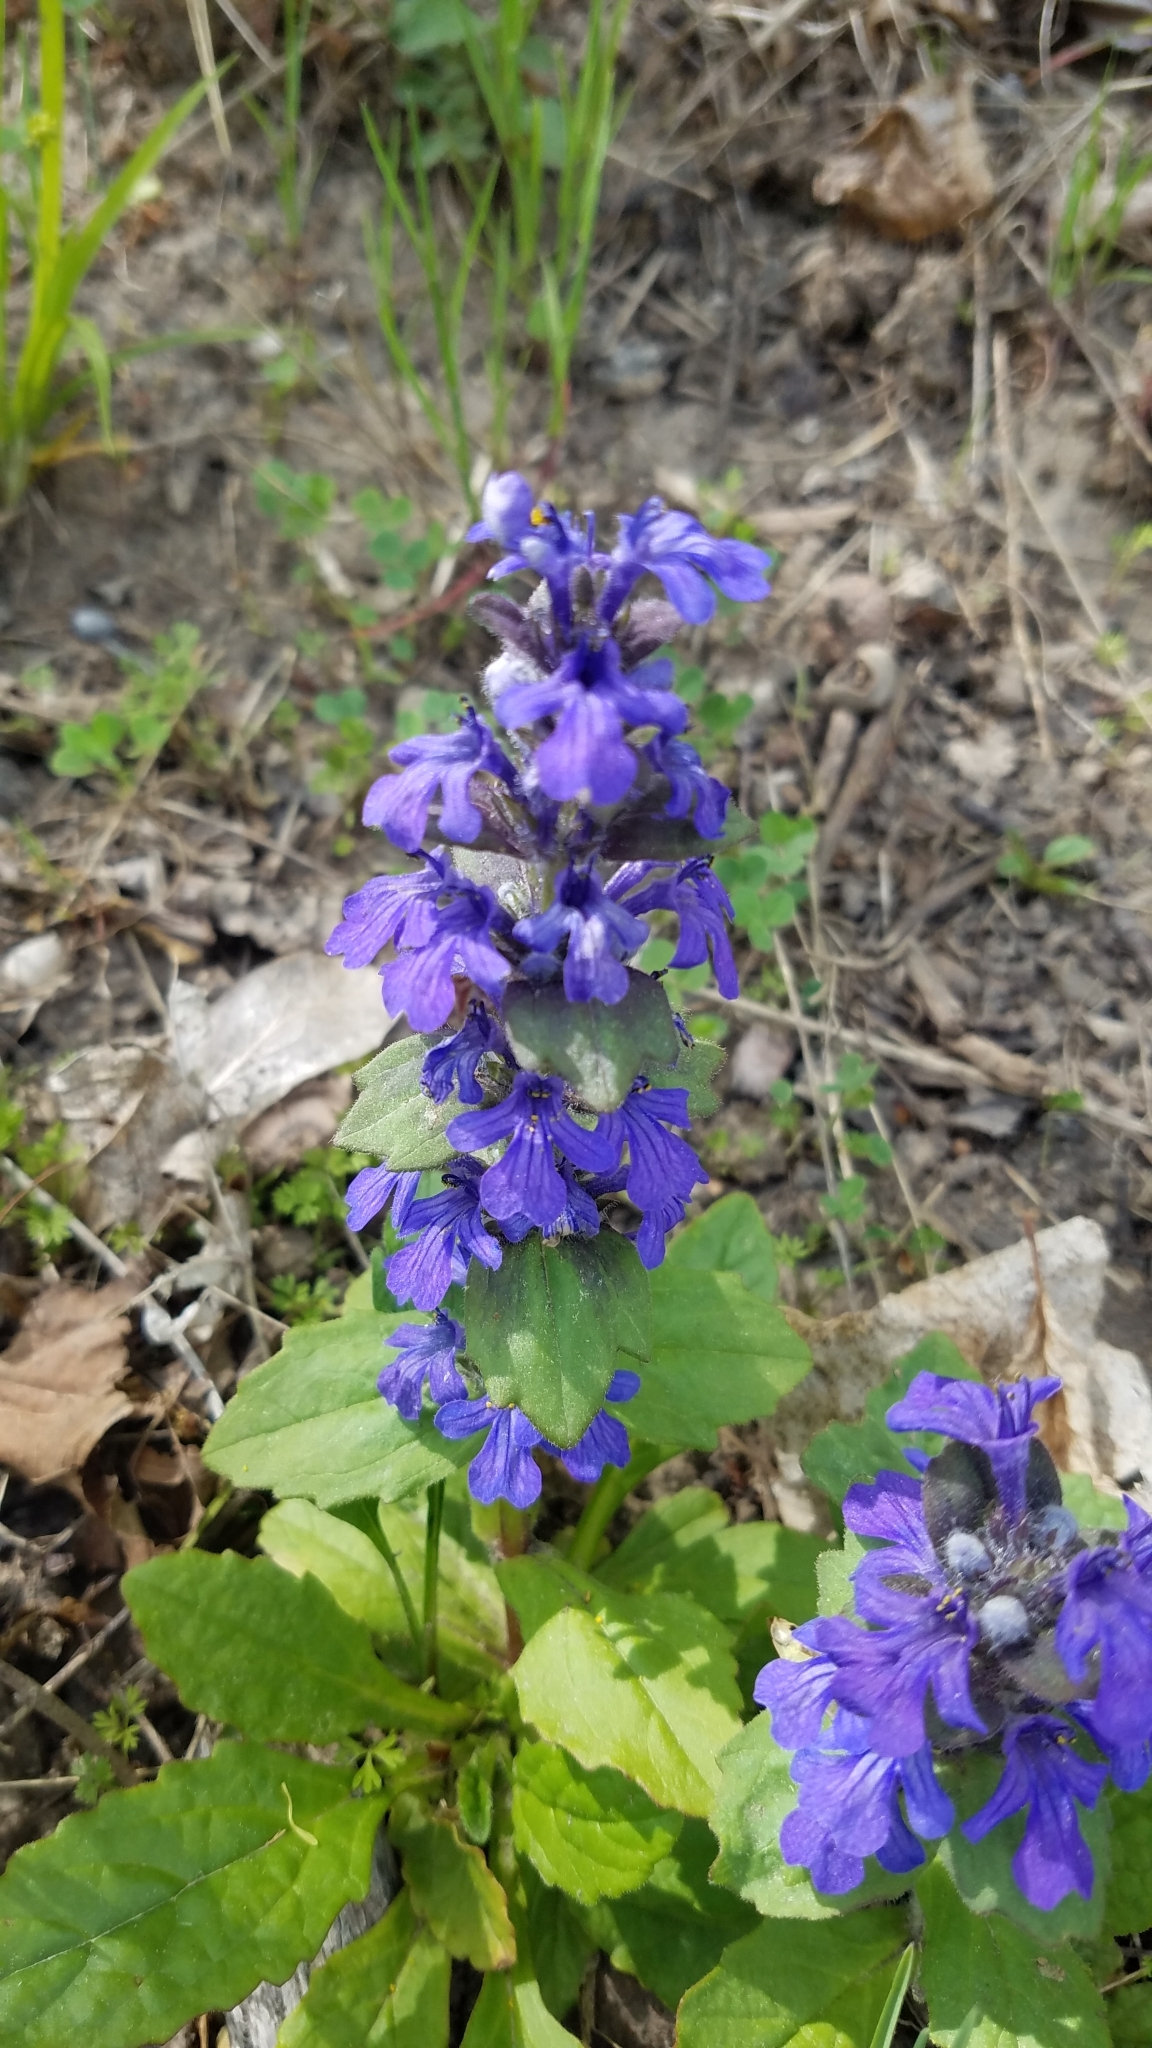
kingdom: Plantae
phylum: Tracheophyta
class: Magnoliopsida
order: Lamiales
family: Lamiaceae
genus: Ajuga
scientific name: Ajuga reptans
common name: Bugle
